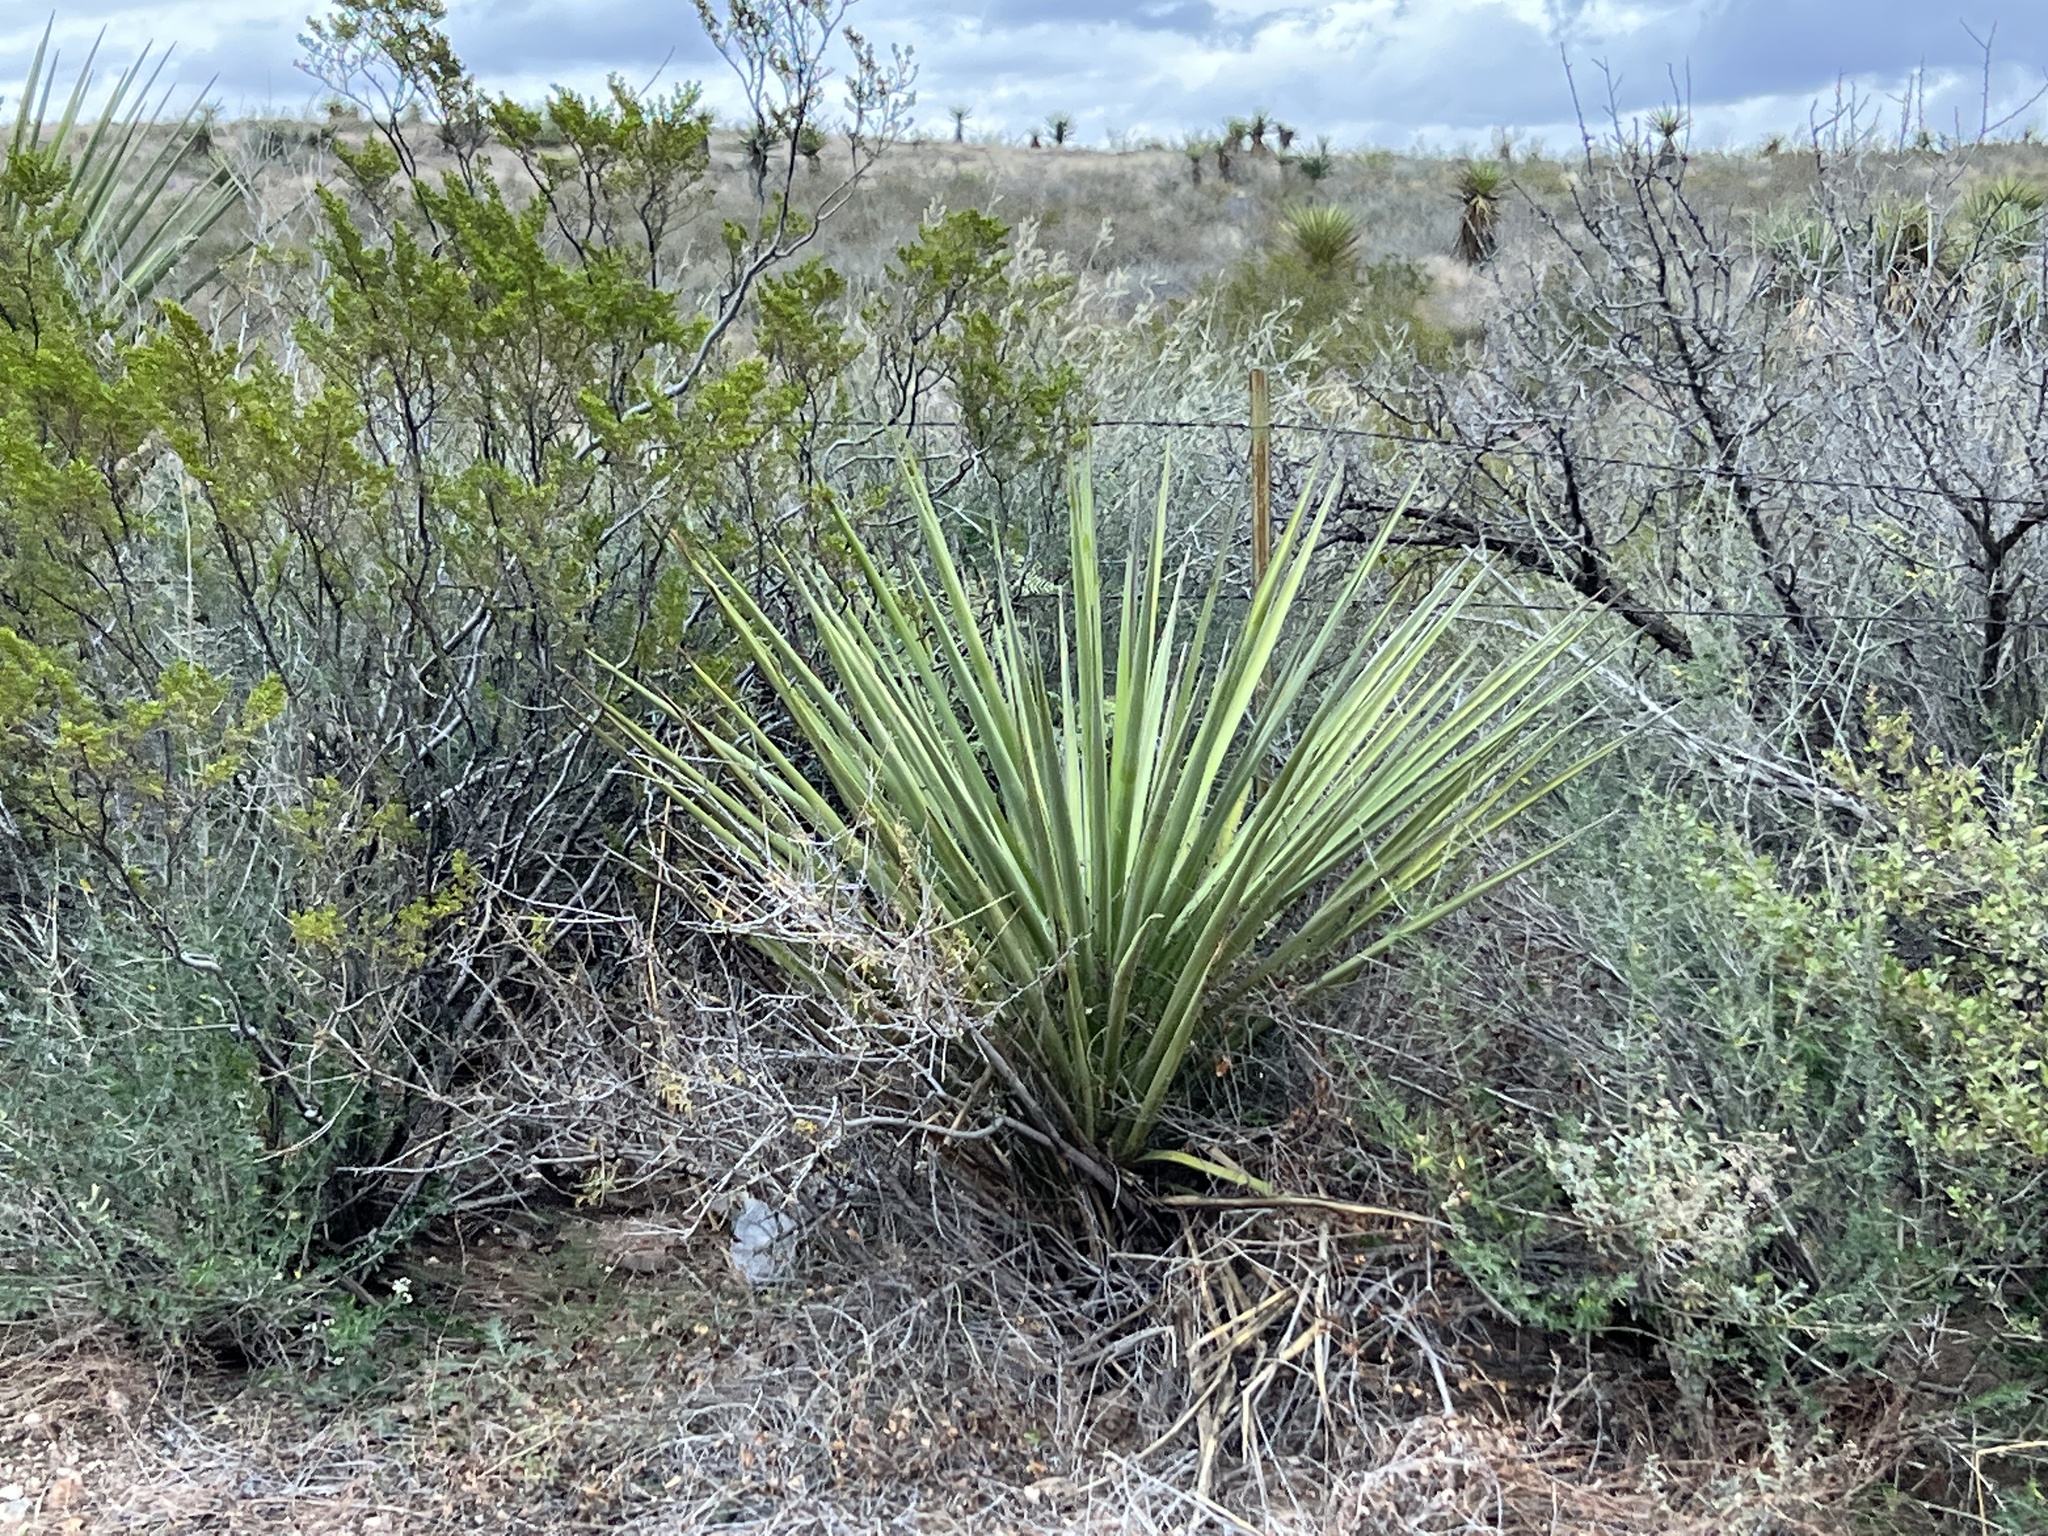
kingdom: Plantae
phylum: Tracheophyta
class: Liliopsida
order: Asparagales
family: Asparagaceae
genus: Yucca
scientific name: Yucca treculiana
